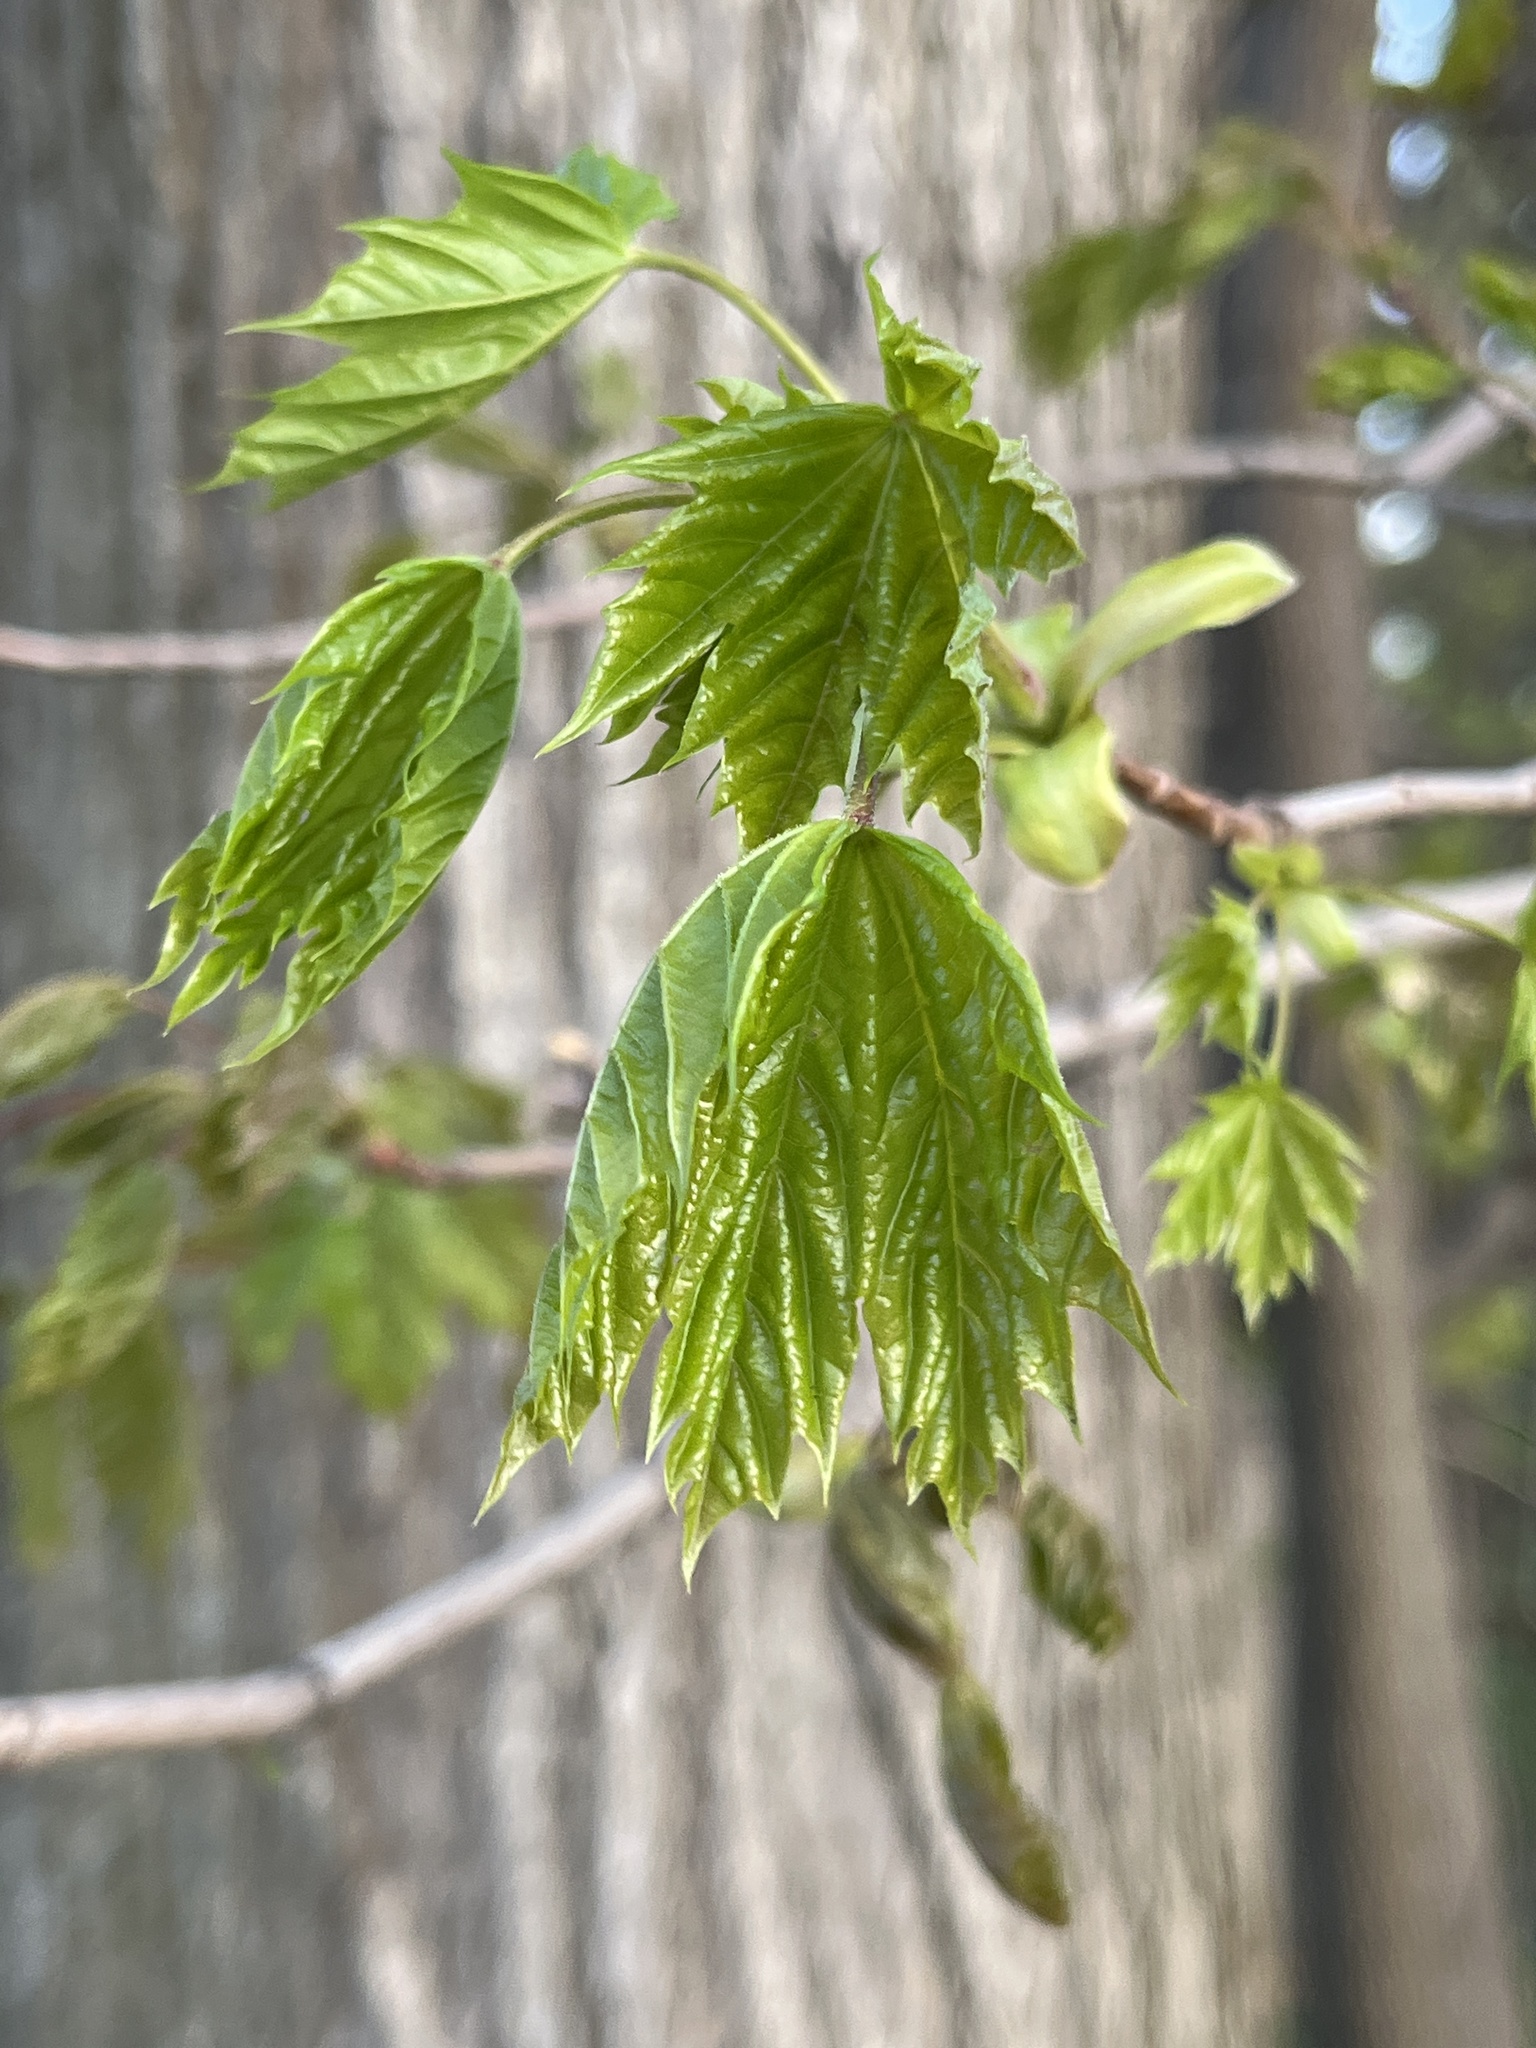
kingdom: Plantae
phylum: Tracheophyta
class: Magnoliopsida
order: Sapindales
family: Sapindaceae
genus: Acer
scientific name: Acer negundo
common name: Ashleaf maple
